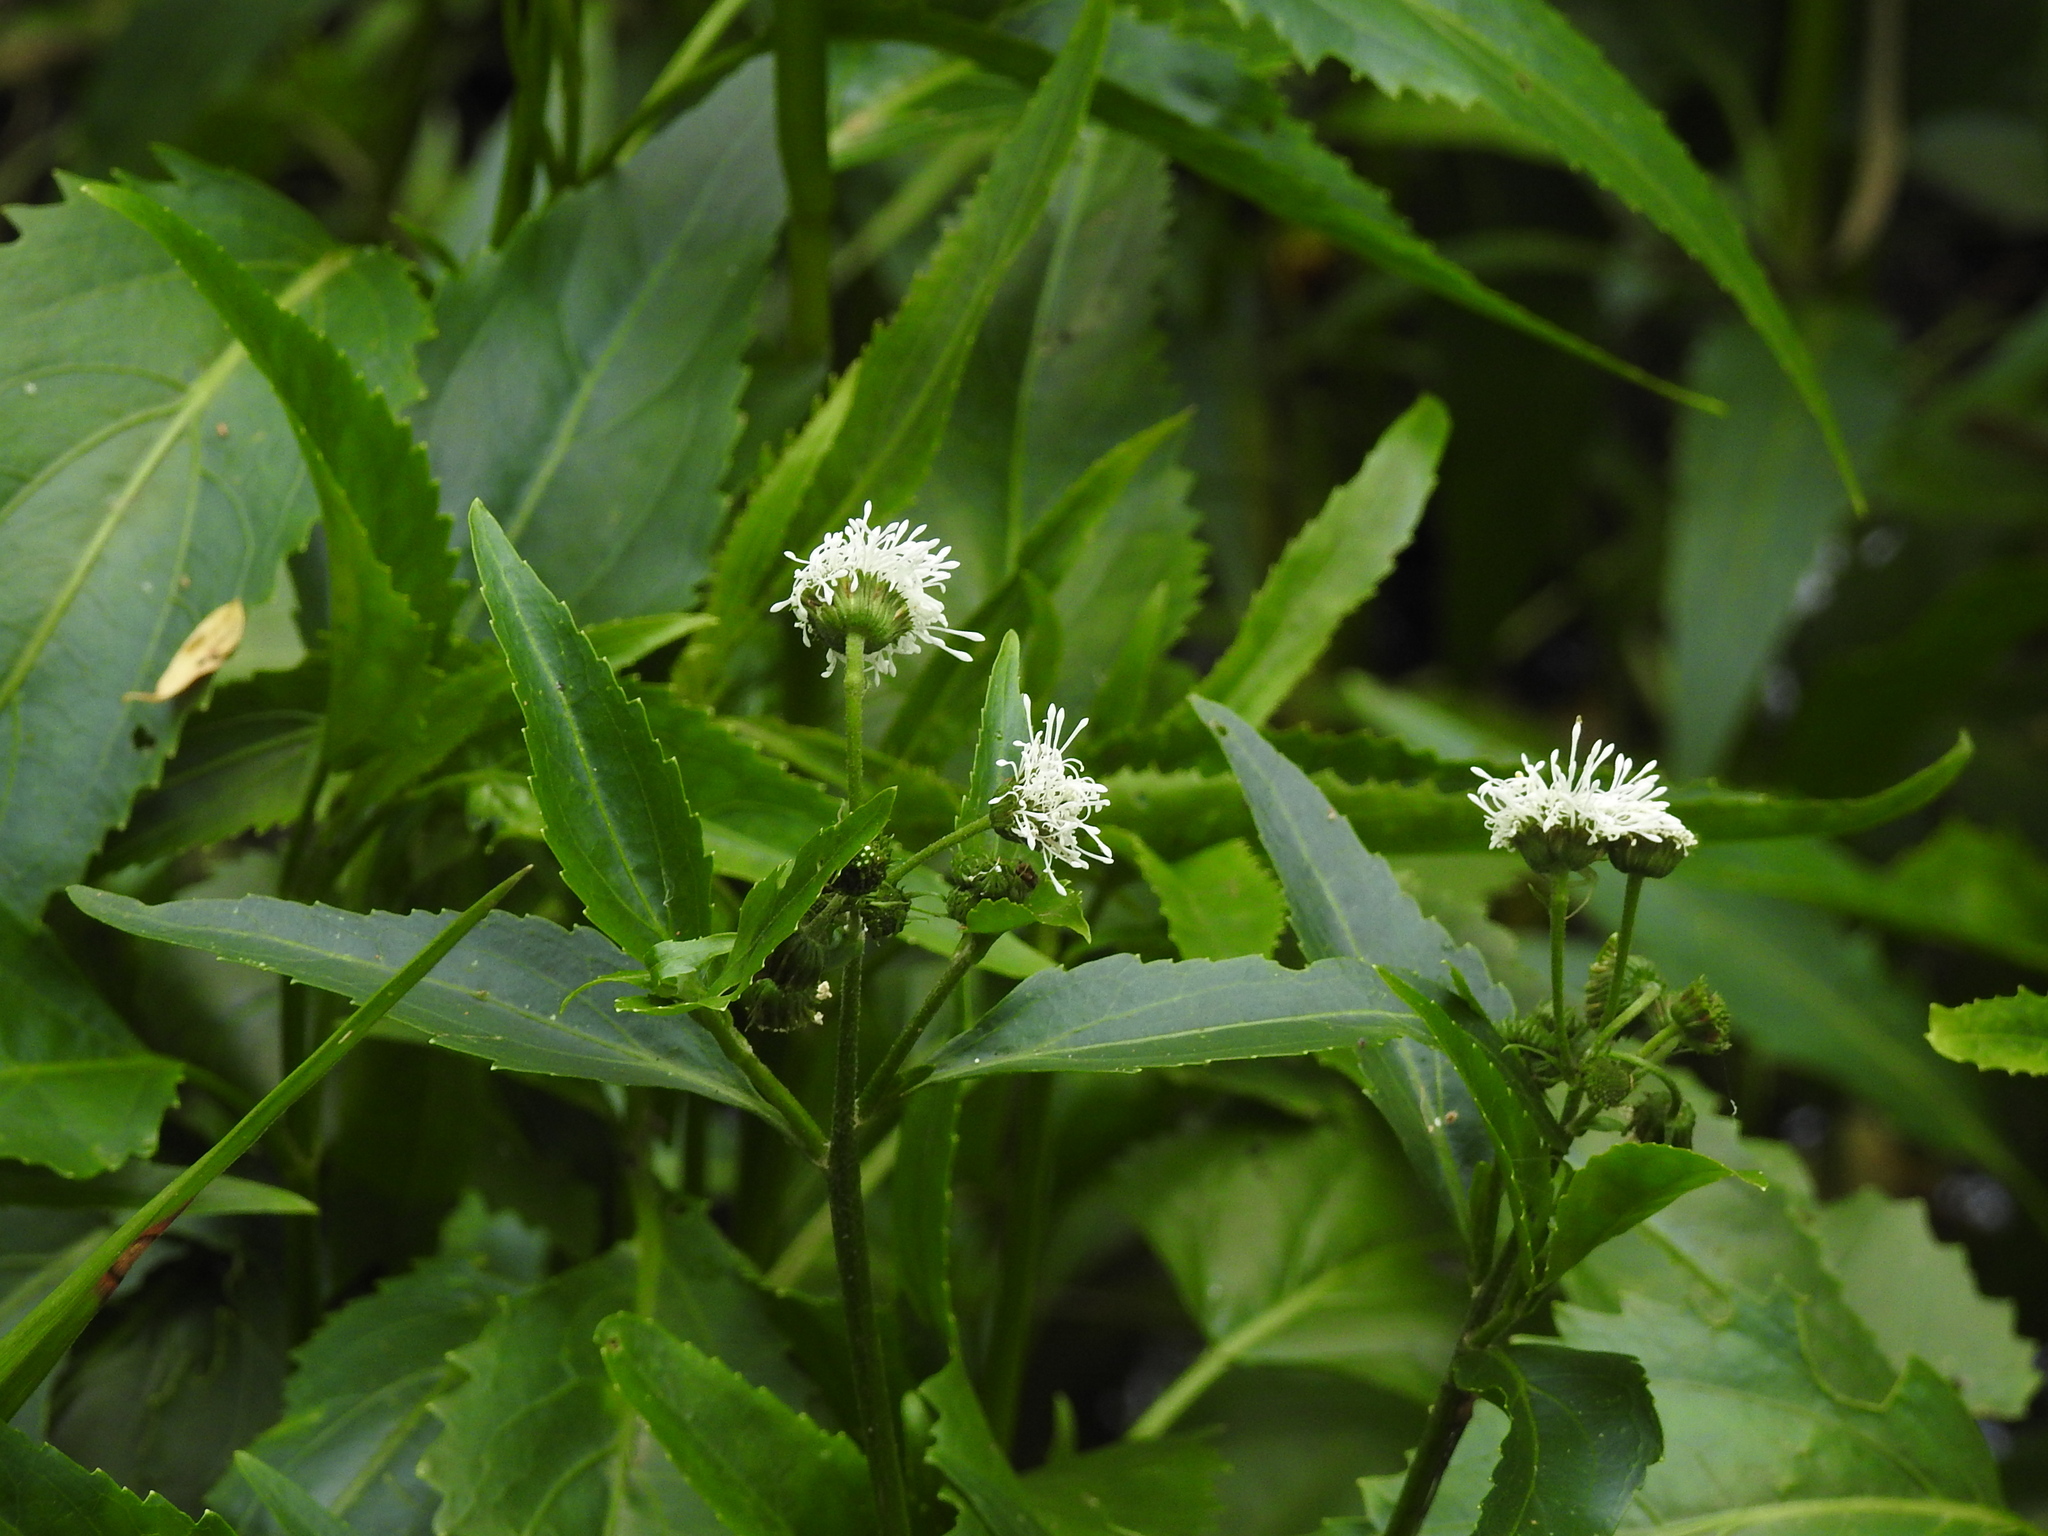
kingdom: Plantae
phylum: Tracheophyta
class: Magnoliopsida
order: Asterales
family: Asteraceae
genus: Gymnocoronis
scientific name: Gymnocoronis spilanthoides
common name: Senegal teaplant
